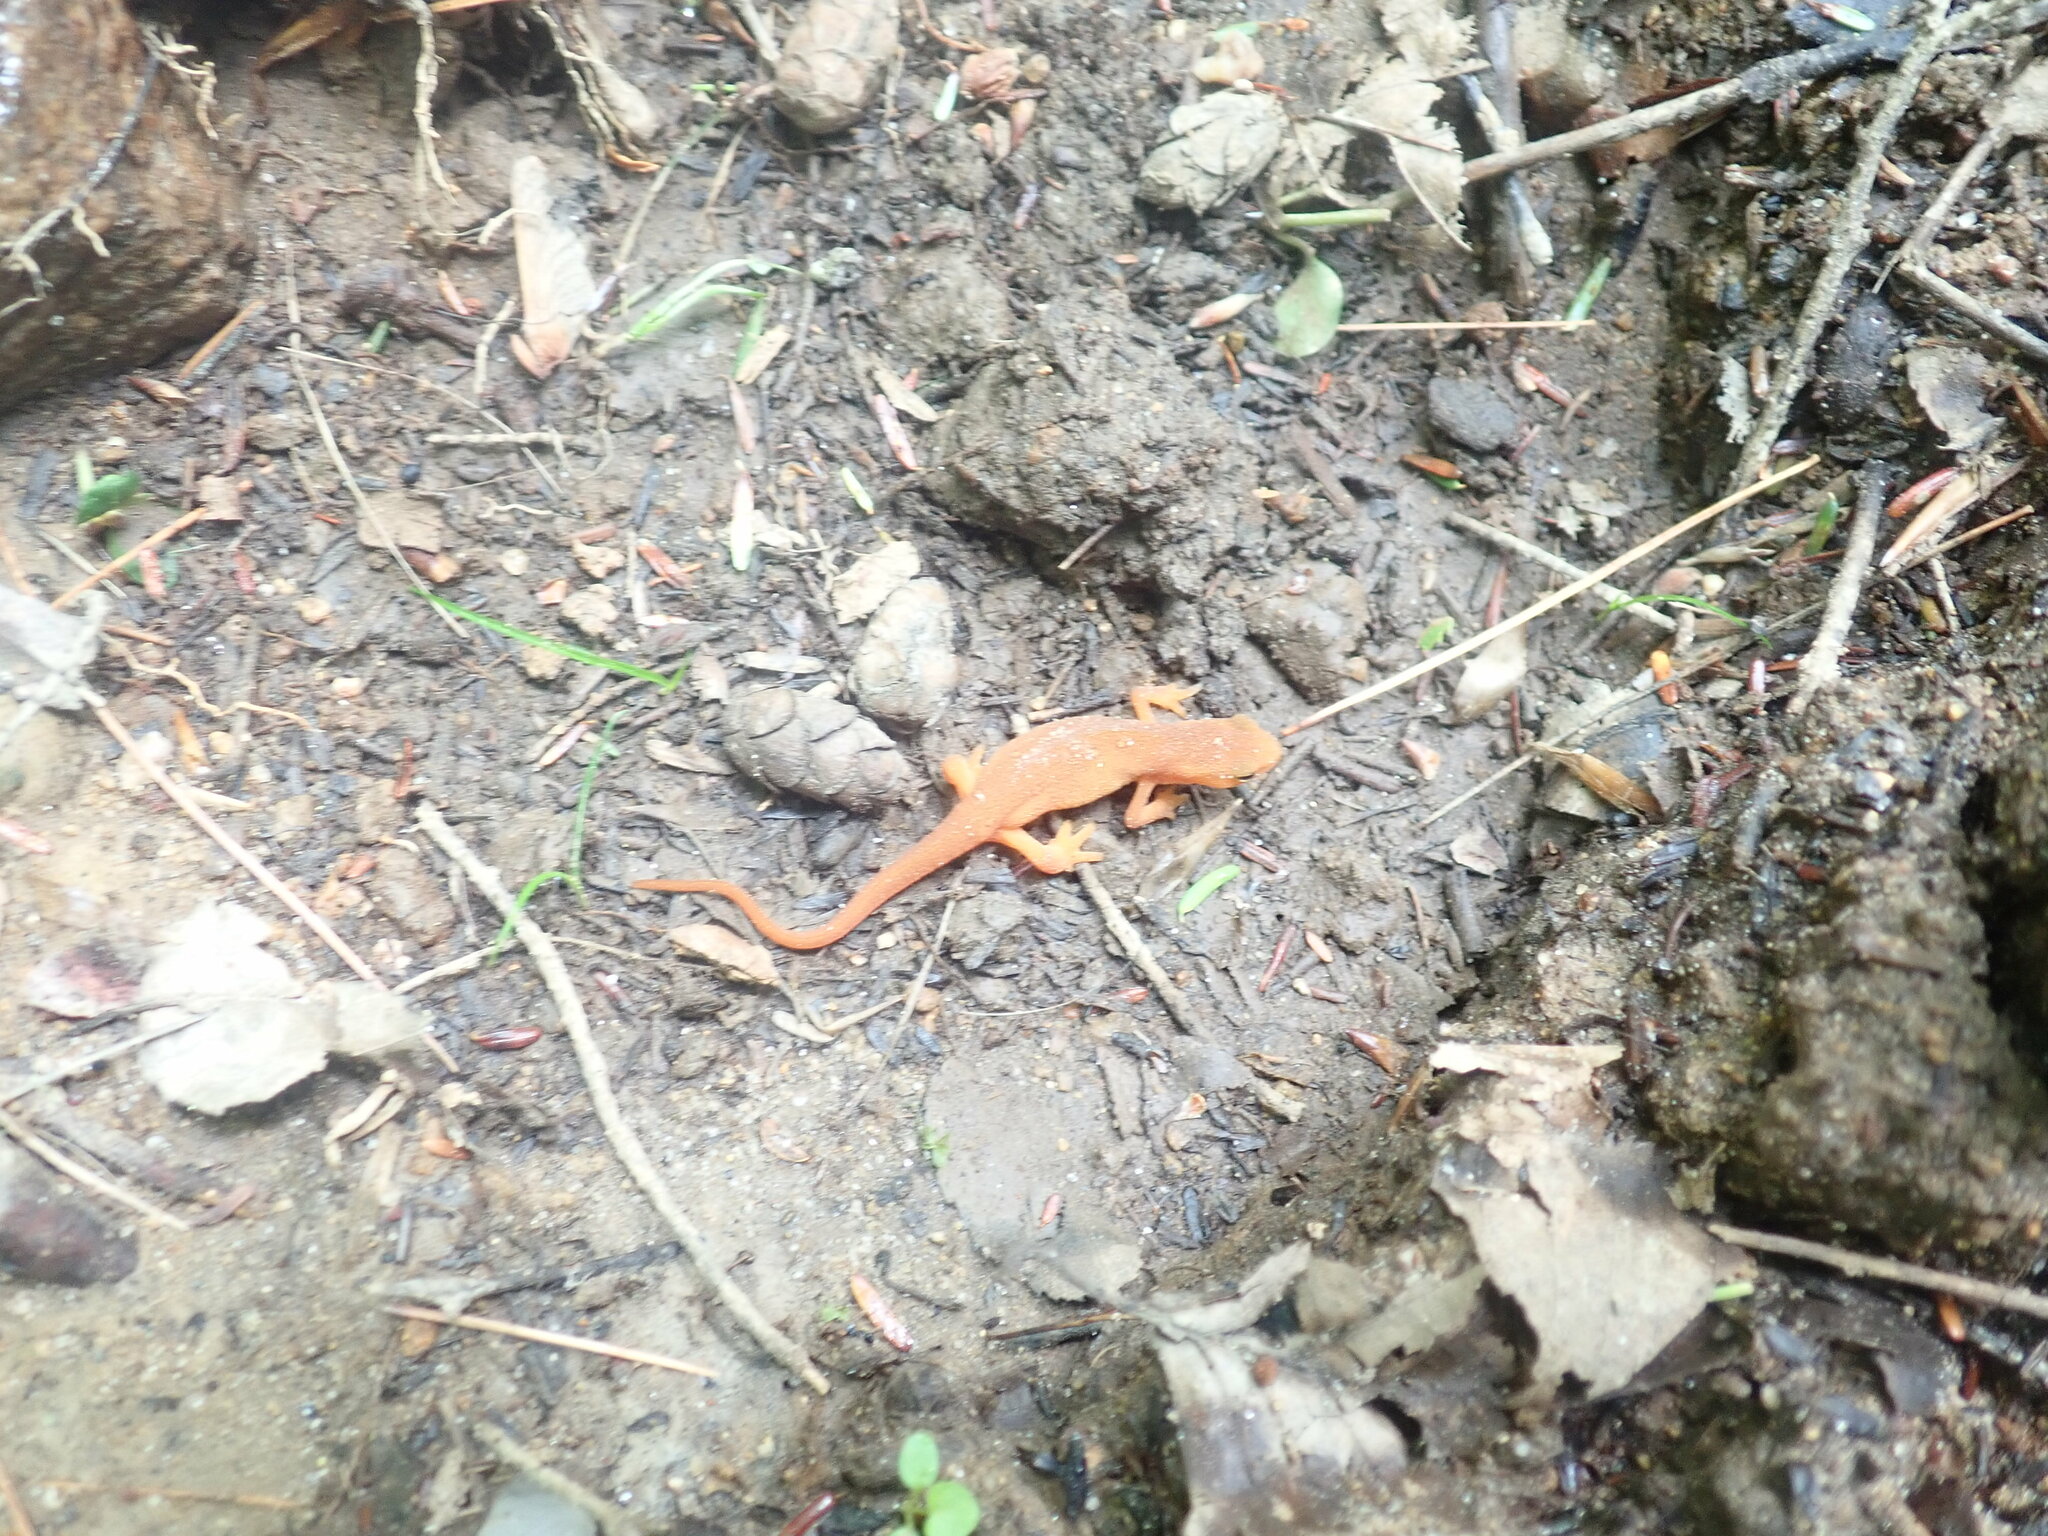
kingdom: Animalia
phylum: Chordata
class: Amphibia
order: Caudata
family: Salamandridae
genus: Notophthalmus
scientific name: Notophthalmus viridescens
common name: Eastern newt
